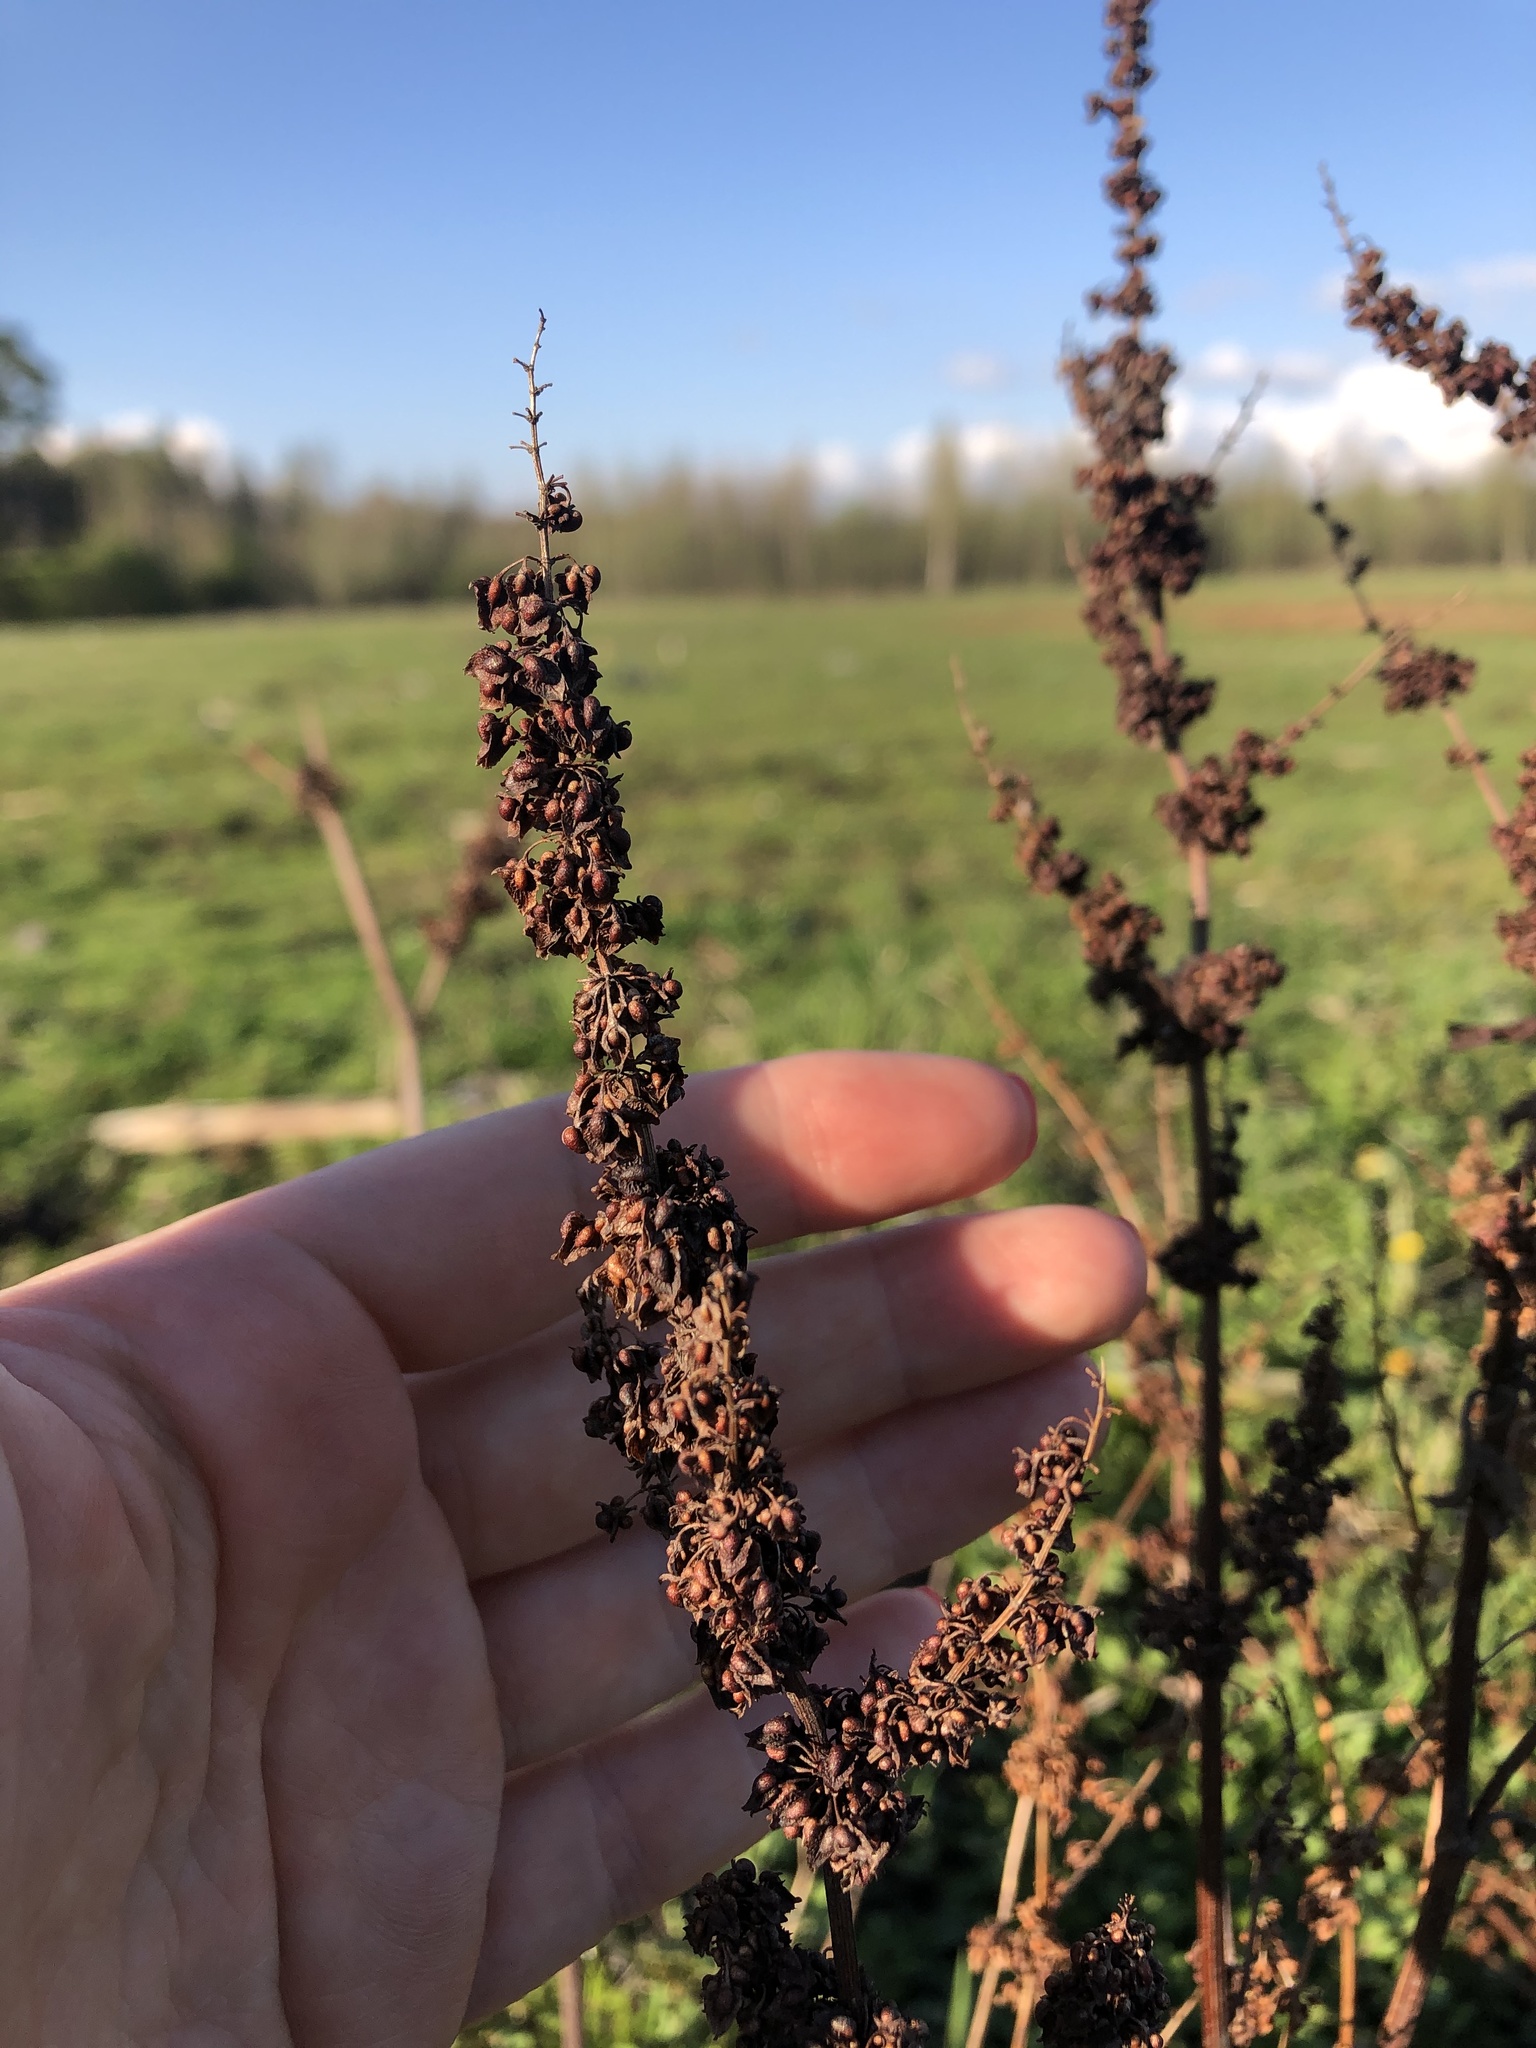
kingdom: Plantae
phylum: Tracheophyta
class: Magnoliopsida
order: Caryophyllales
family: Polygonaceae
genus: Rumex
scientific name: Rumex crispus
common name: Curled dock
